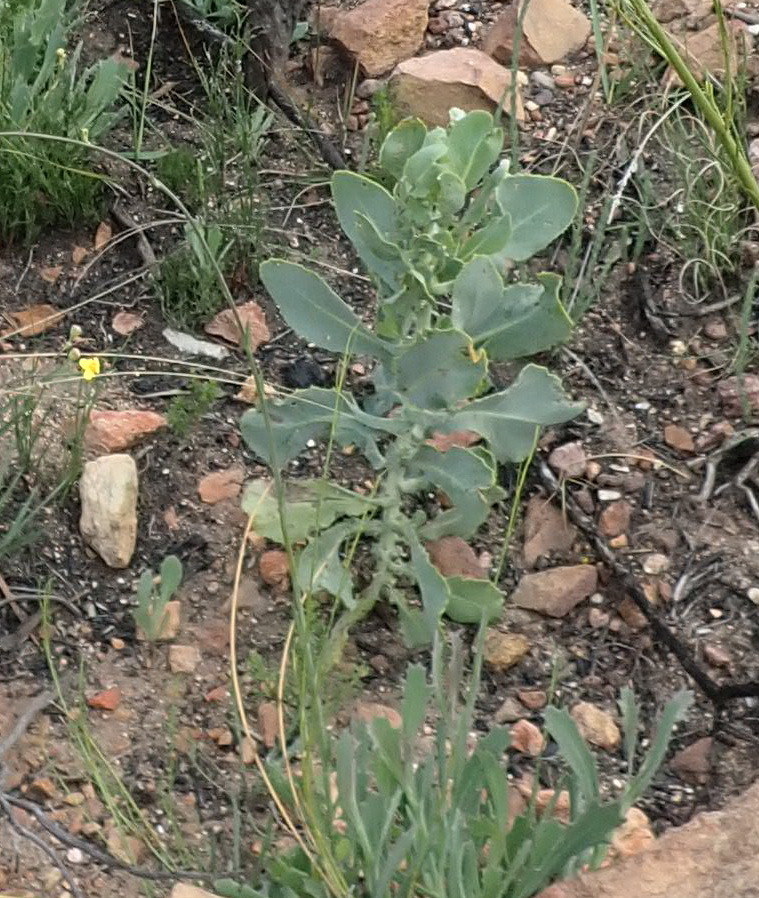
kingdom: Plantae
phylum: Tracheophyta
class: Magnoliopsida
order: Asterales
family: Asteraceae
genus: Othonna
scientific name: Othonna parviflora
